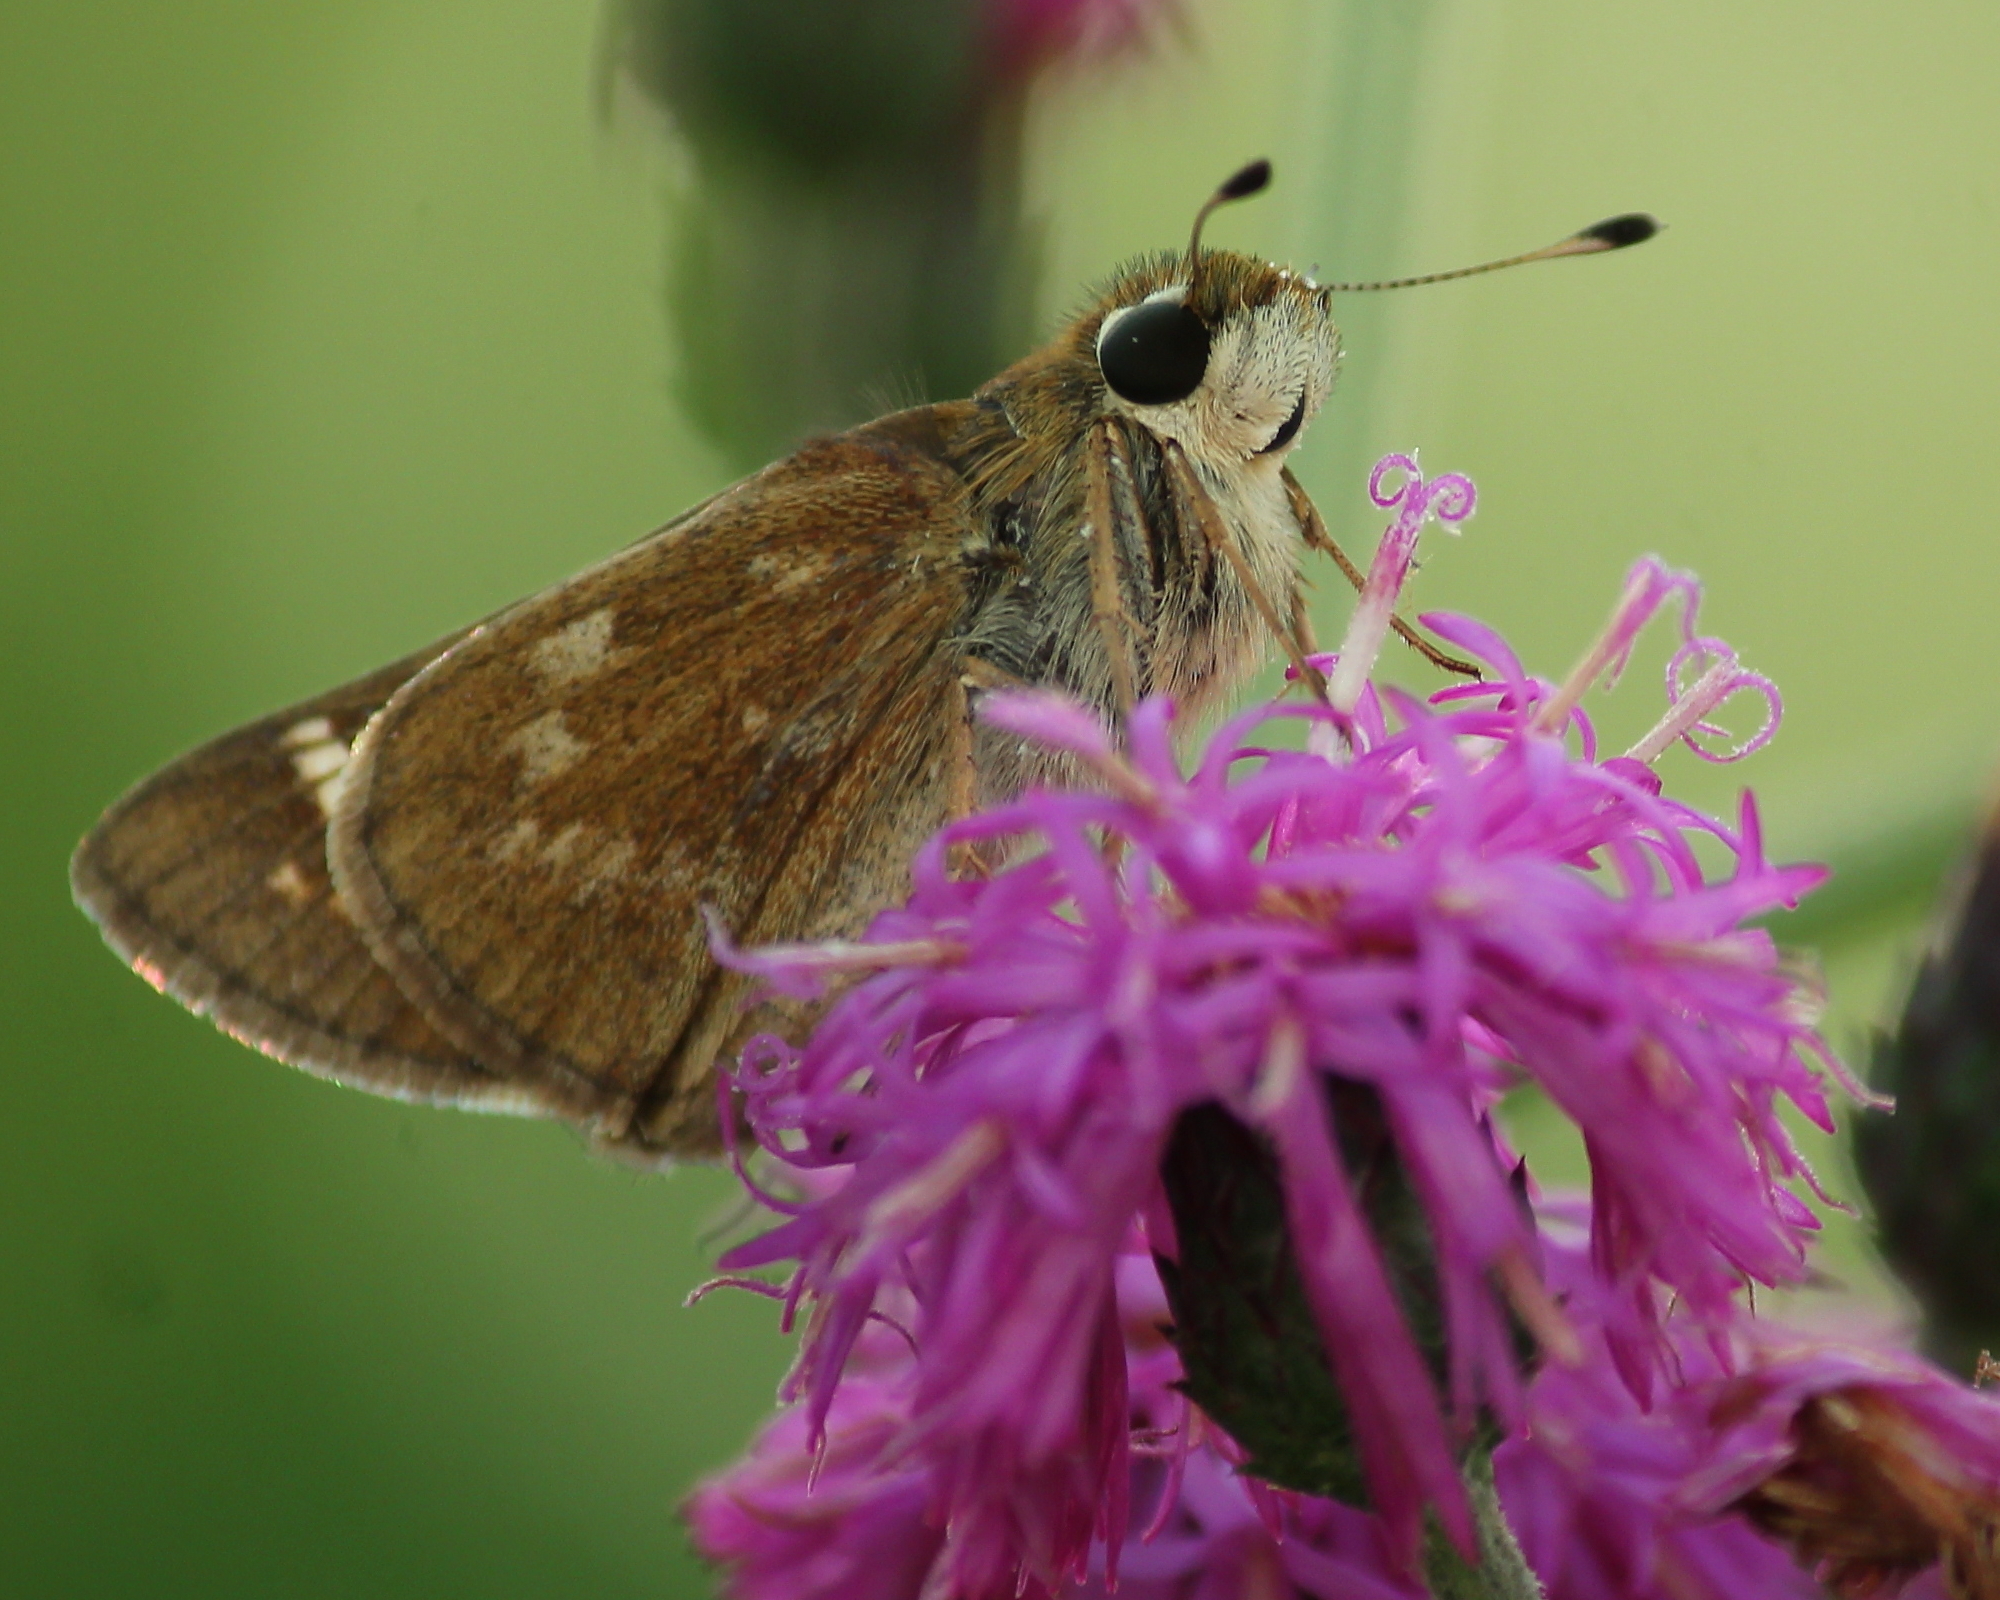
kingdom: Animalia
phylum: Arthropoda
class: Insecta
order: Lepidoptera
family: Hesperiidae
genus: Atalopedes
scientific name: Atalopedes
